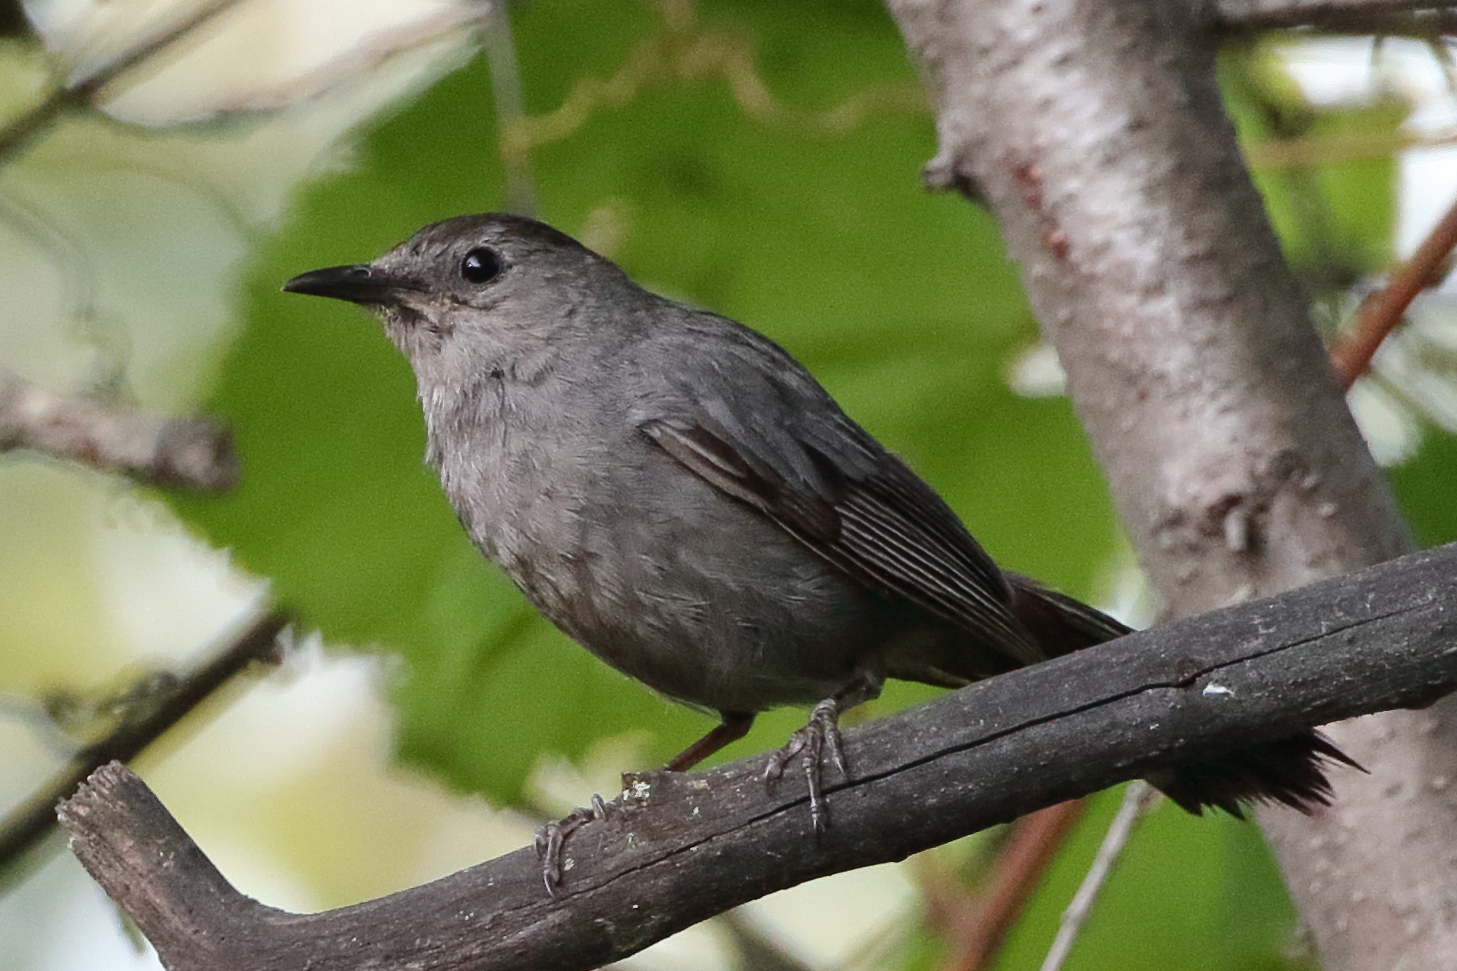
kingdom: Animalia
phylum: Chordata
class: Aves
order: Passeriformes
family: Mimidae
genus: Dumetella
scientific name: Dumetella carolinensis
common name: Gray catbird
